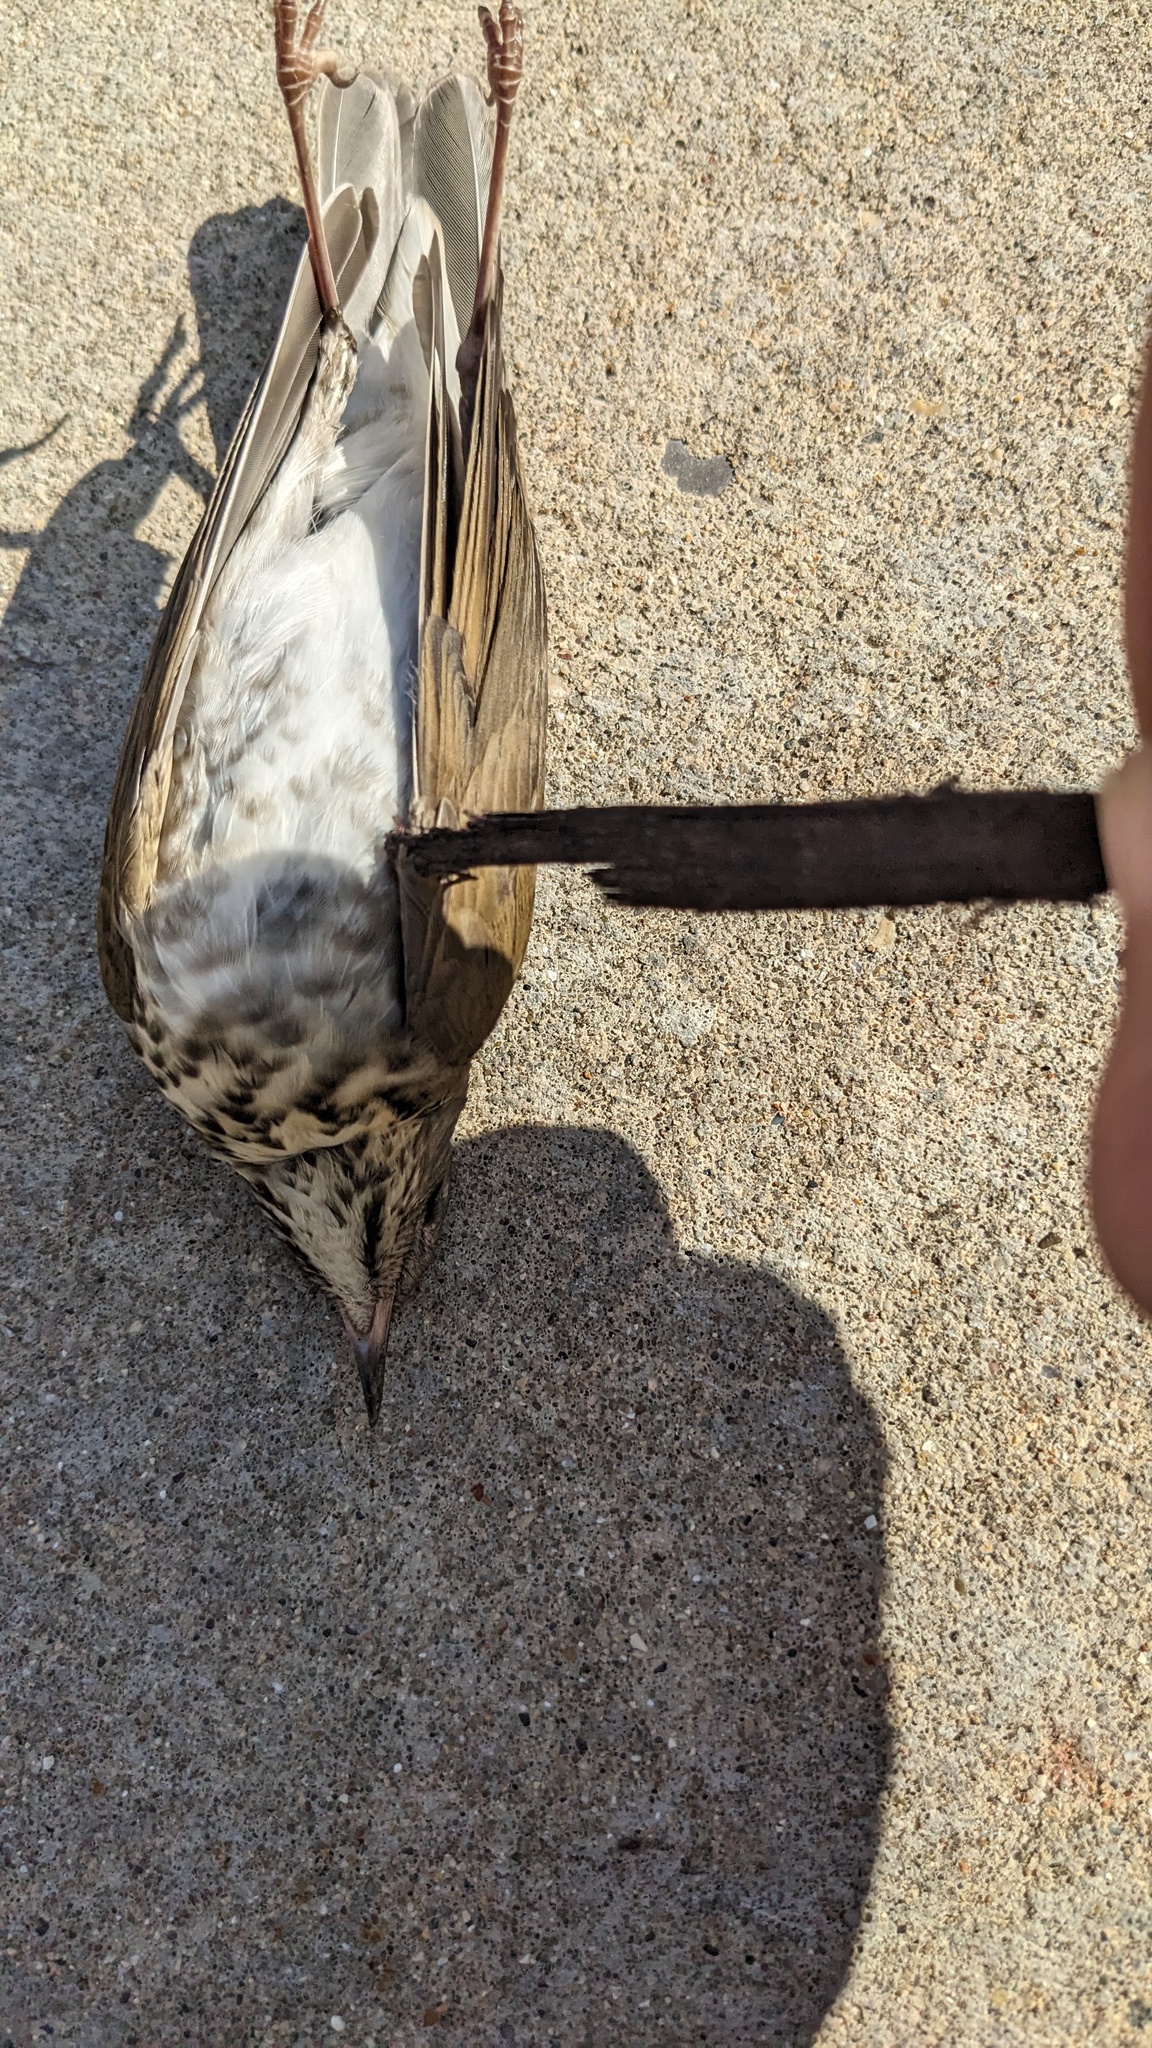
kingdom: Animalia
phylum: Chordata
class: Aves
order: Passeriformes
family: Turdidae
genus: Catharus
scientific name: Catharus minimus
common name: Grey-cheeked thrush
